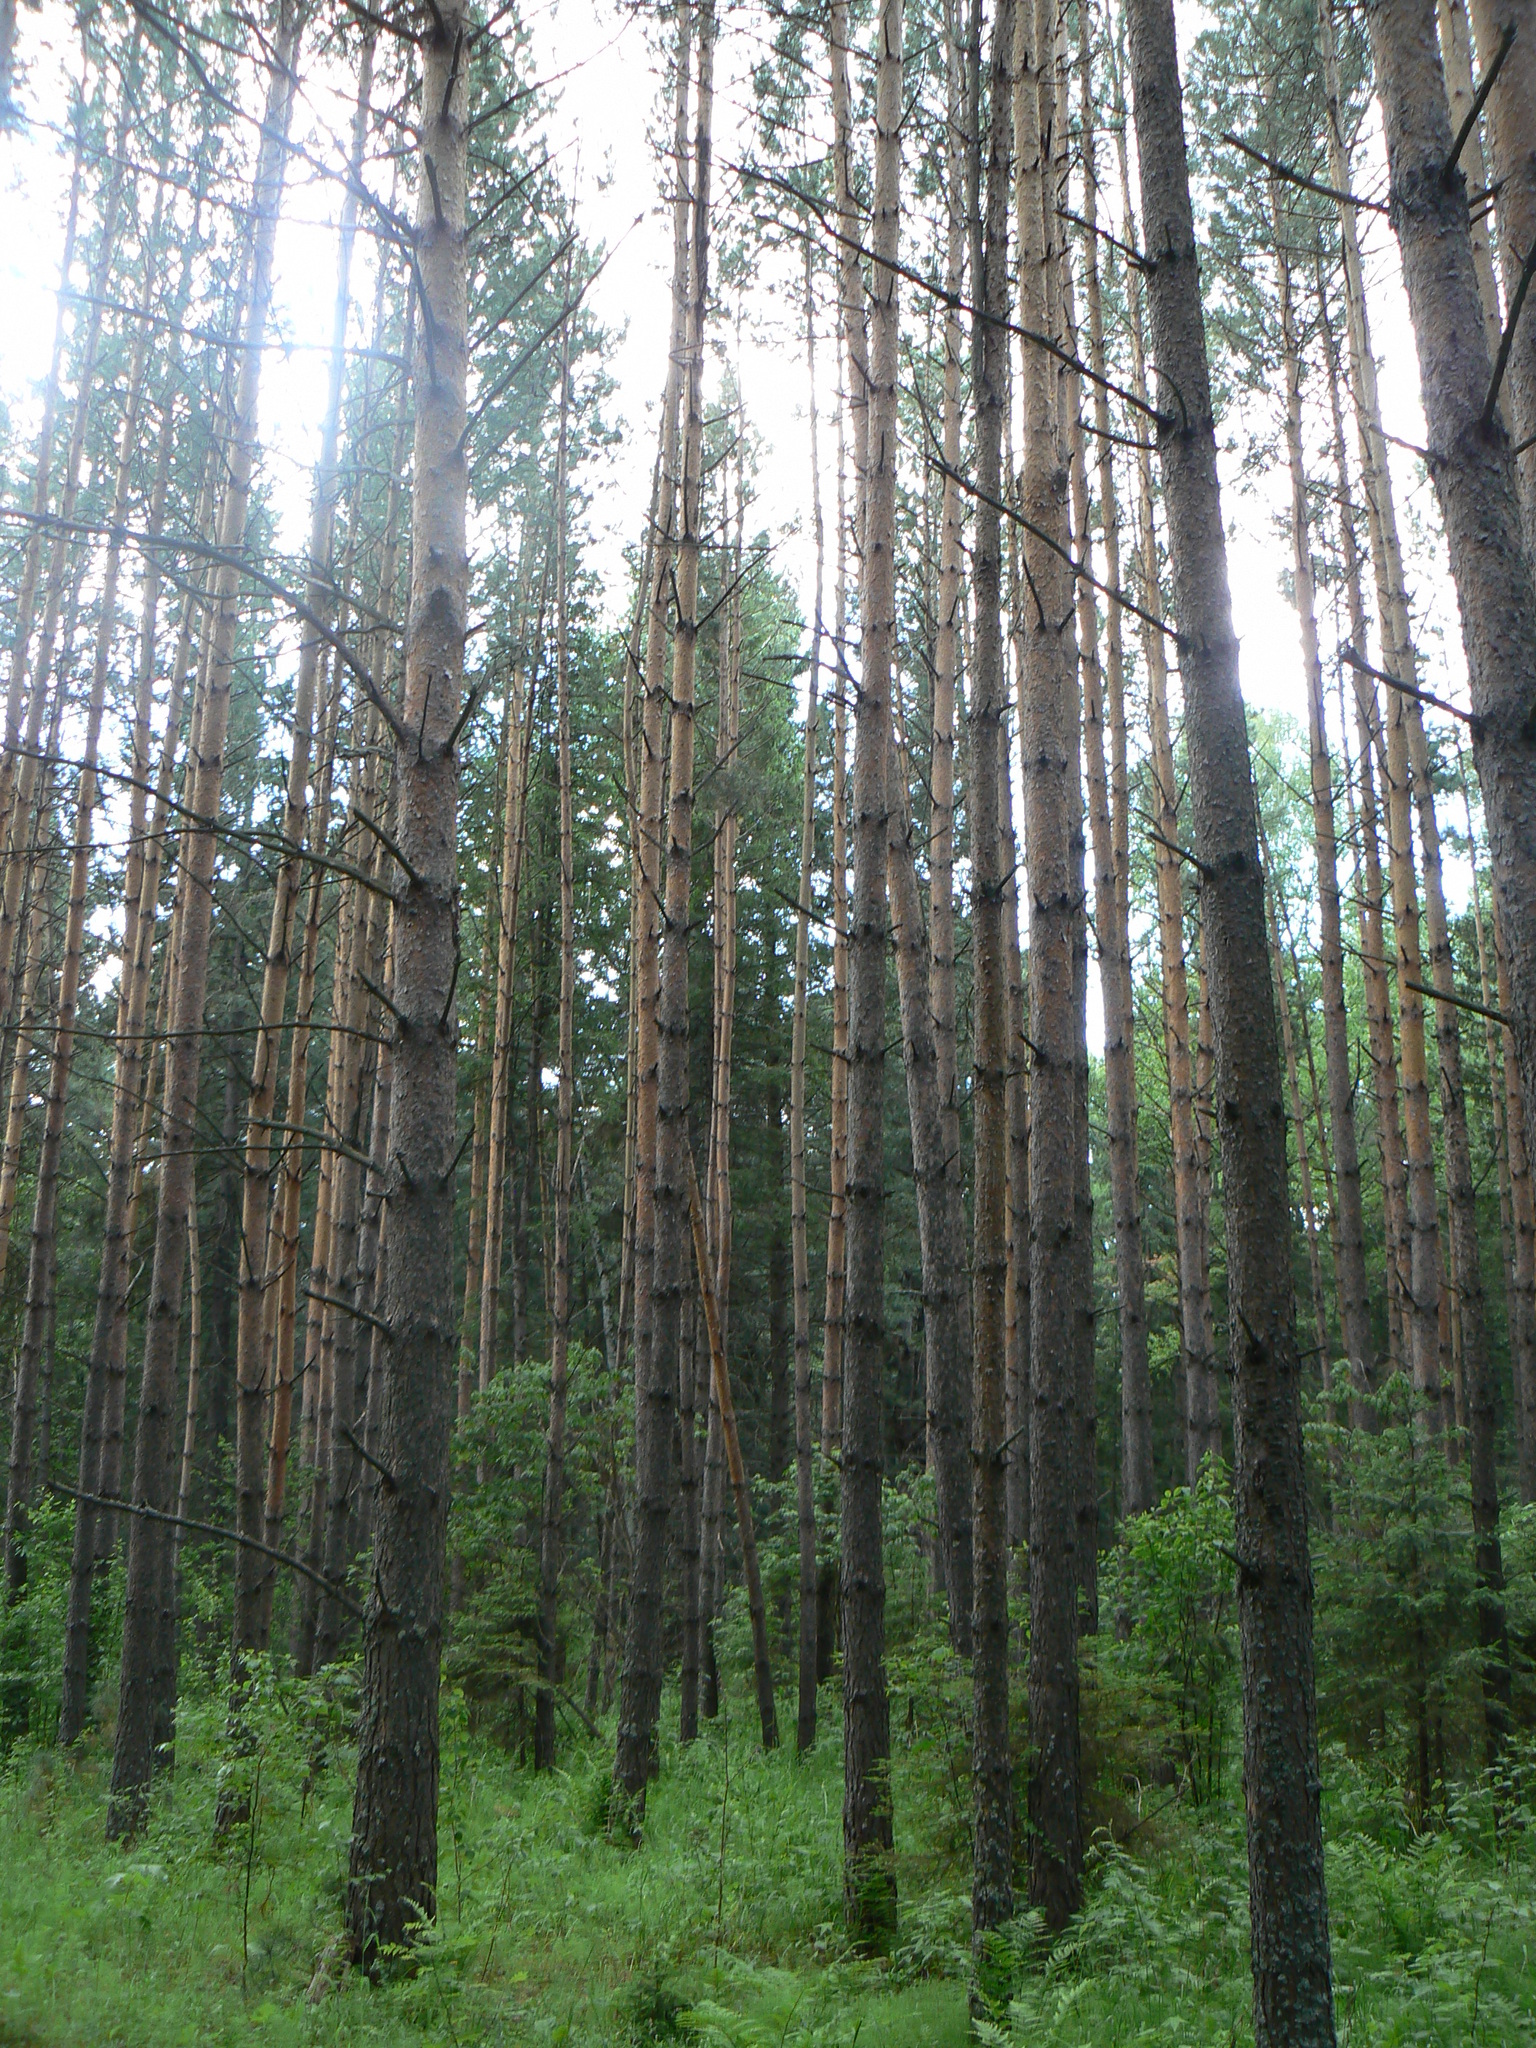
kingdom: Plantae
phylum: Tracheophyta
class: Pinopsida
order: Pinales
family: Pinaceae
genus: Pinus
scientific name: Pinus sylvestris
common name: Scots pine
